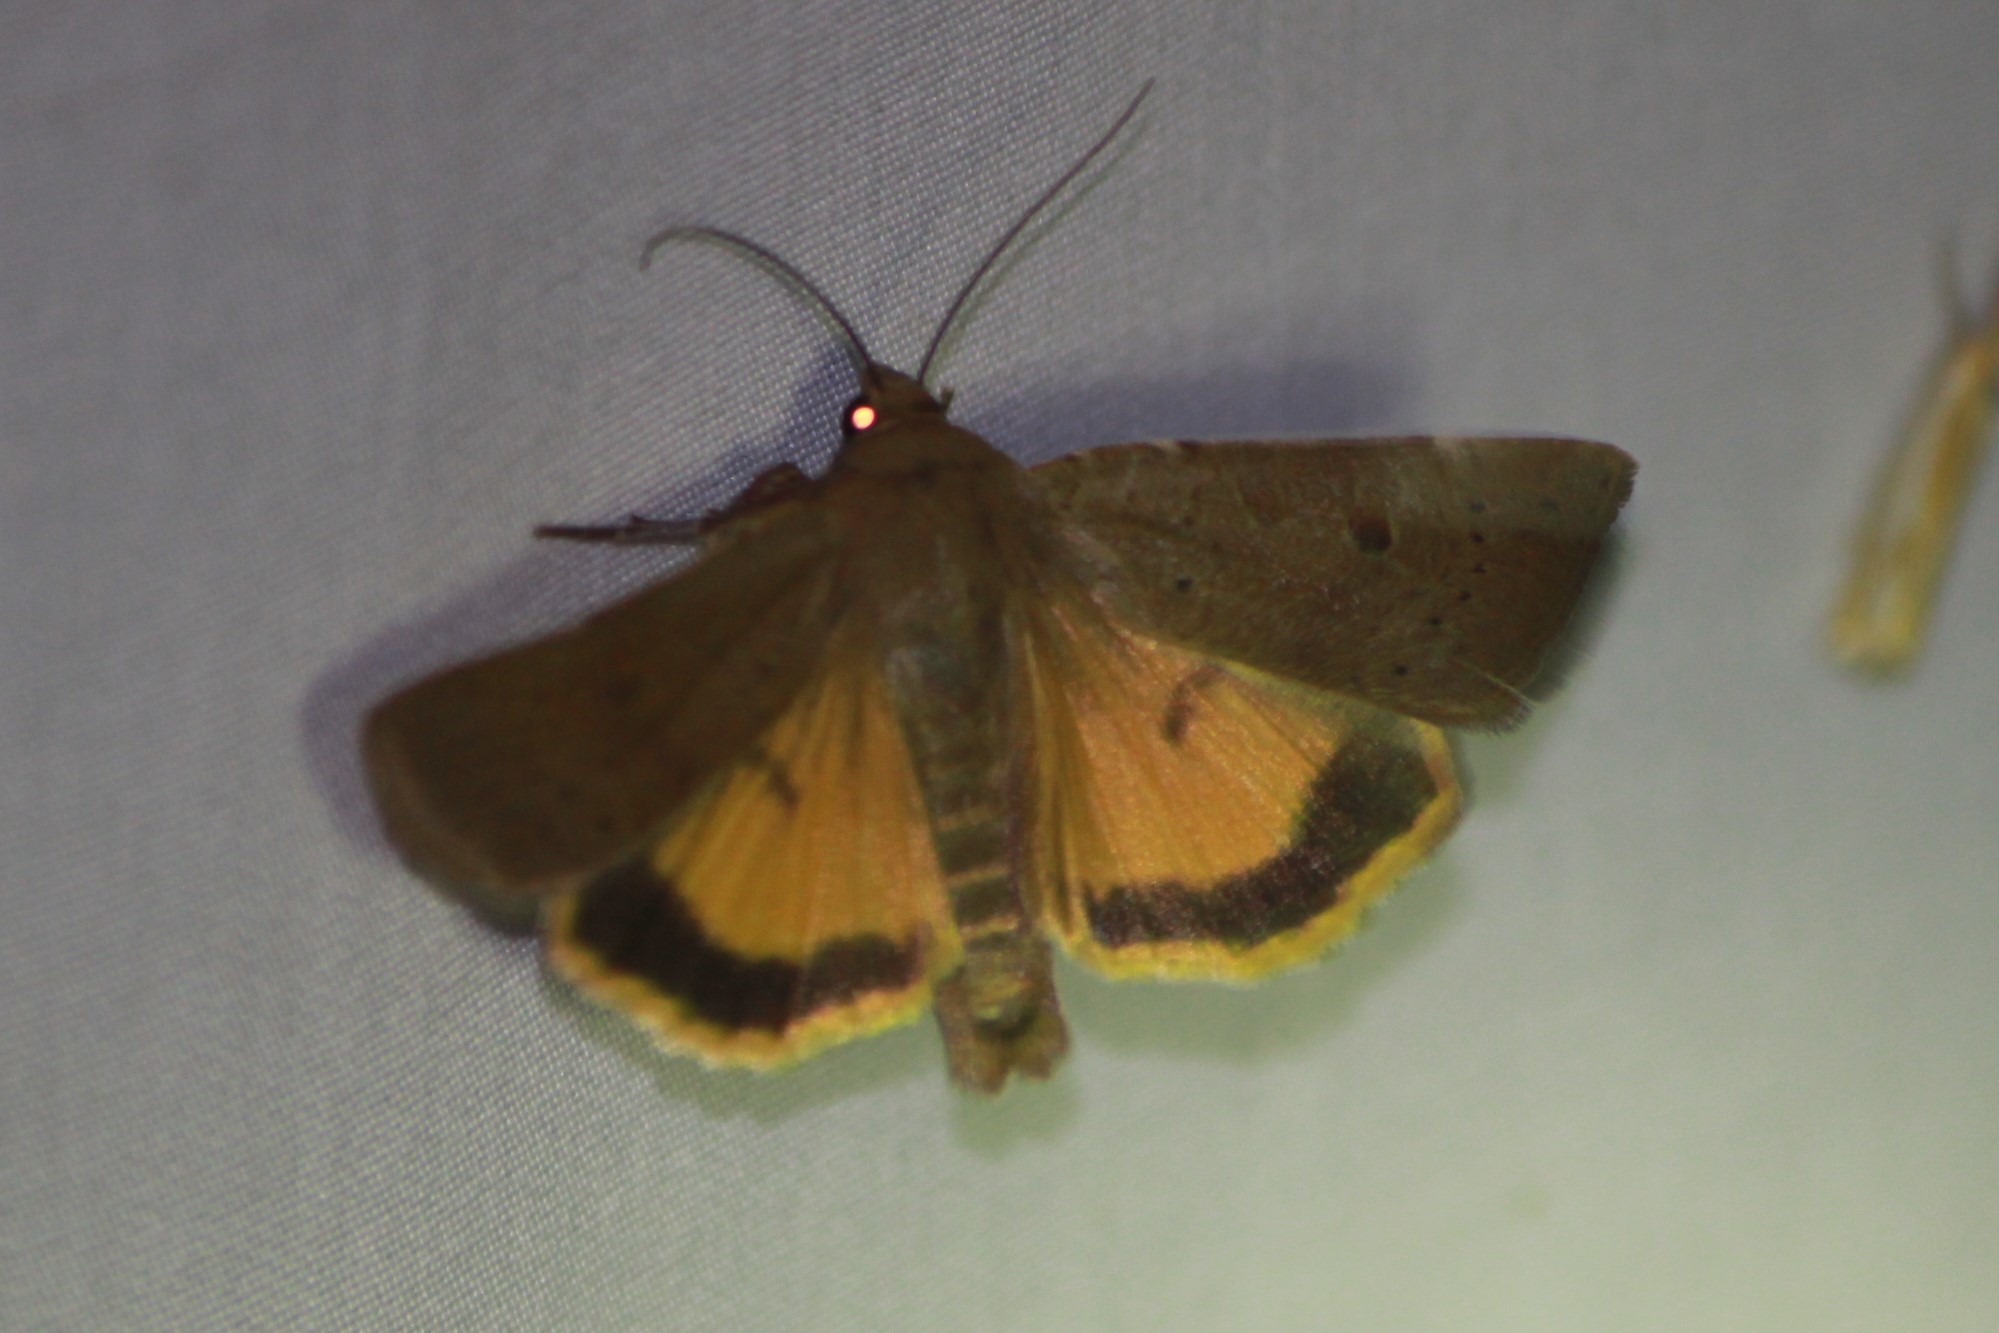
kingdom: Animalia
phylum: Arthropoda
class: Insecta
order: Lepidoptera
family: Noctuidae
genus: Noctua
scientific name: Noctua comes
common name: Lesser yellow underwing
